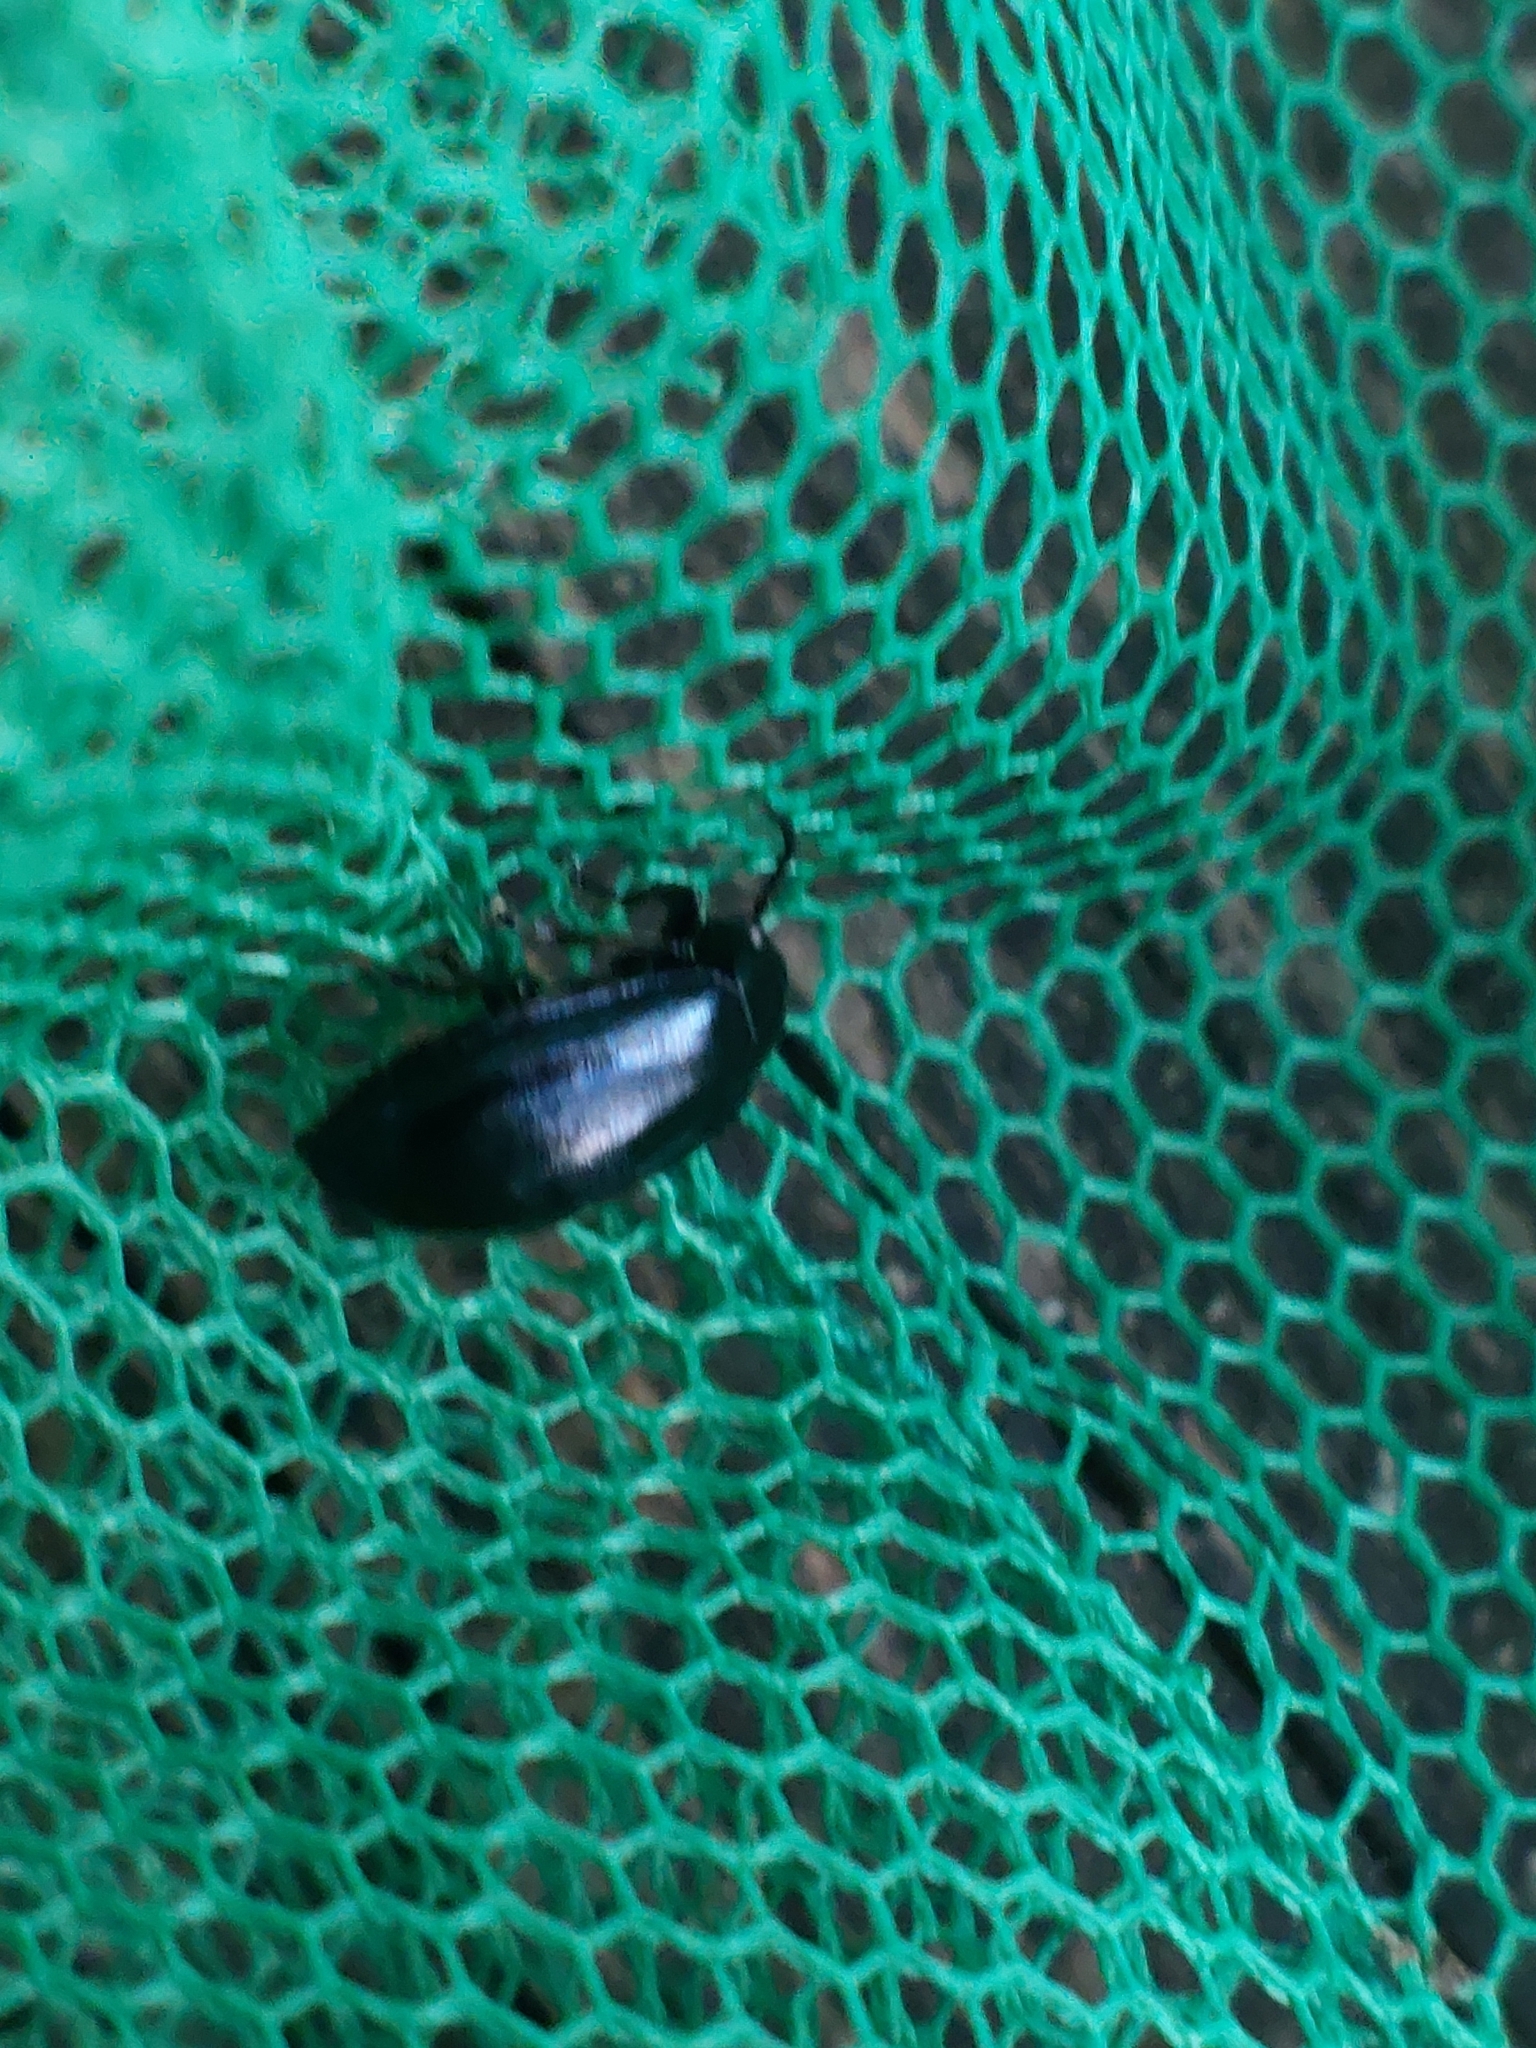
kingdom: Animalia
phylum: Arthropoda
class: Insecta
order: Coleoptera
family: Chrysomelidae
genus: Agelastica
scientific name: Agelastica alni
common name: Alder leaf beetle
